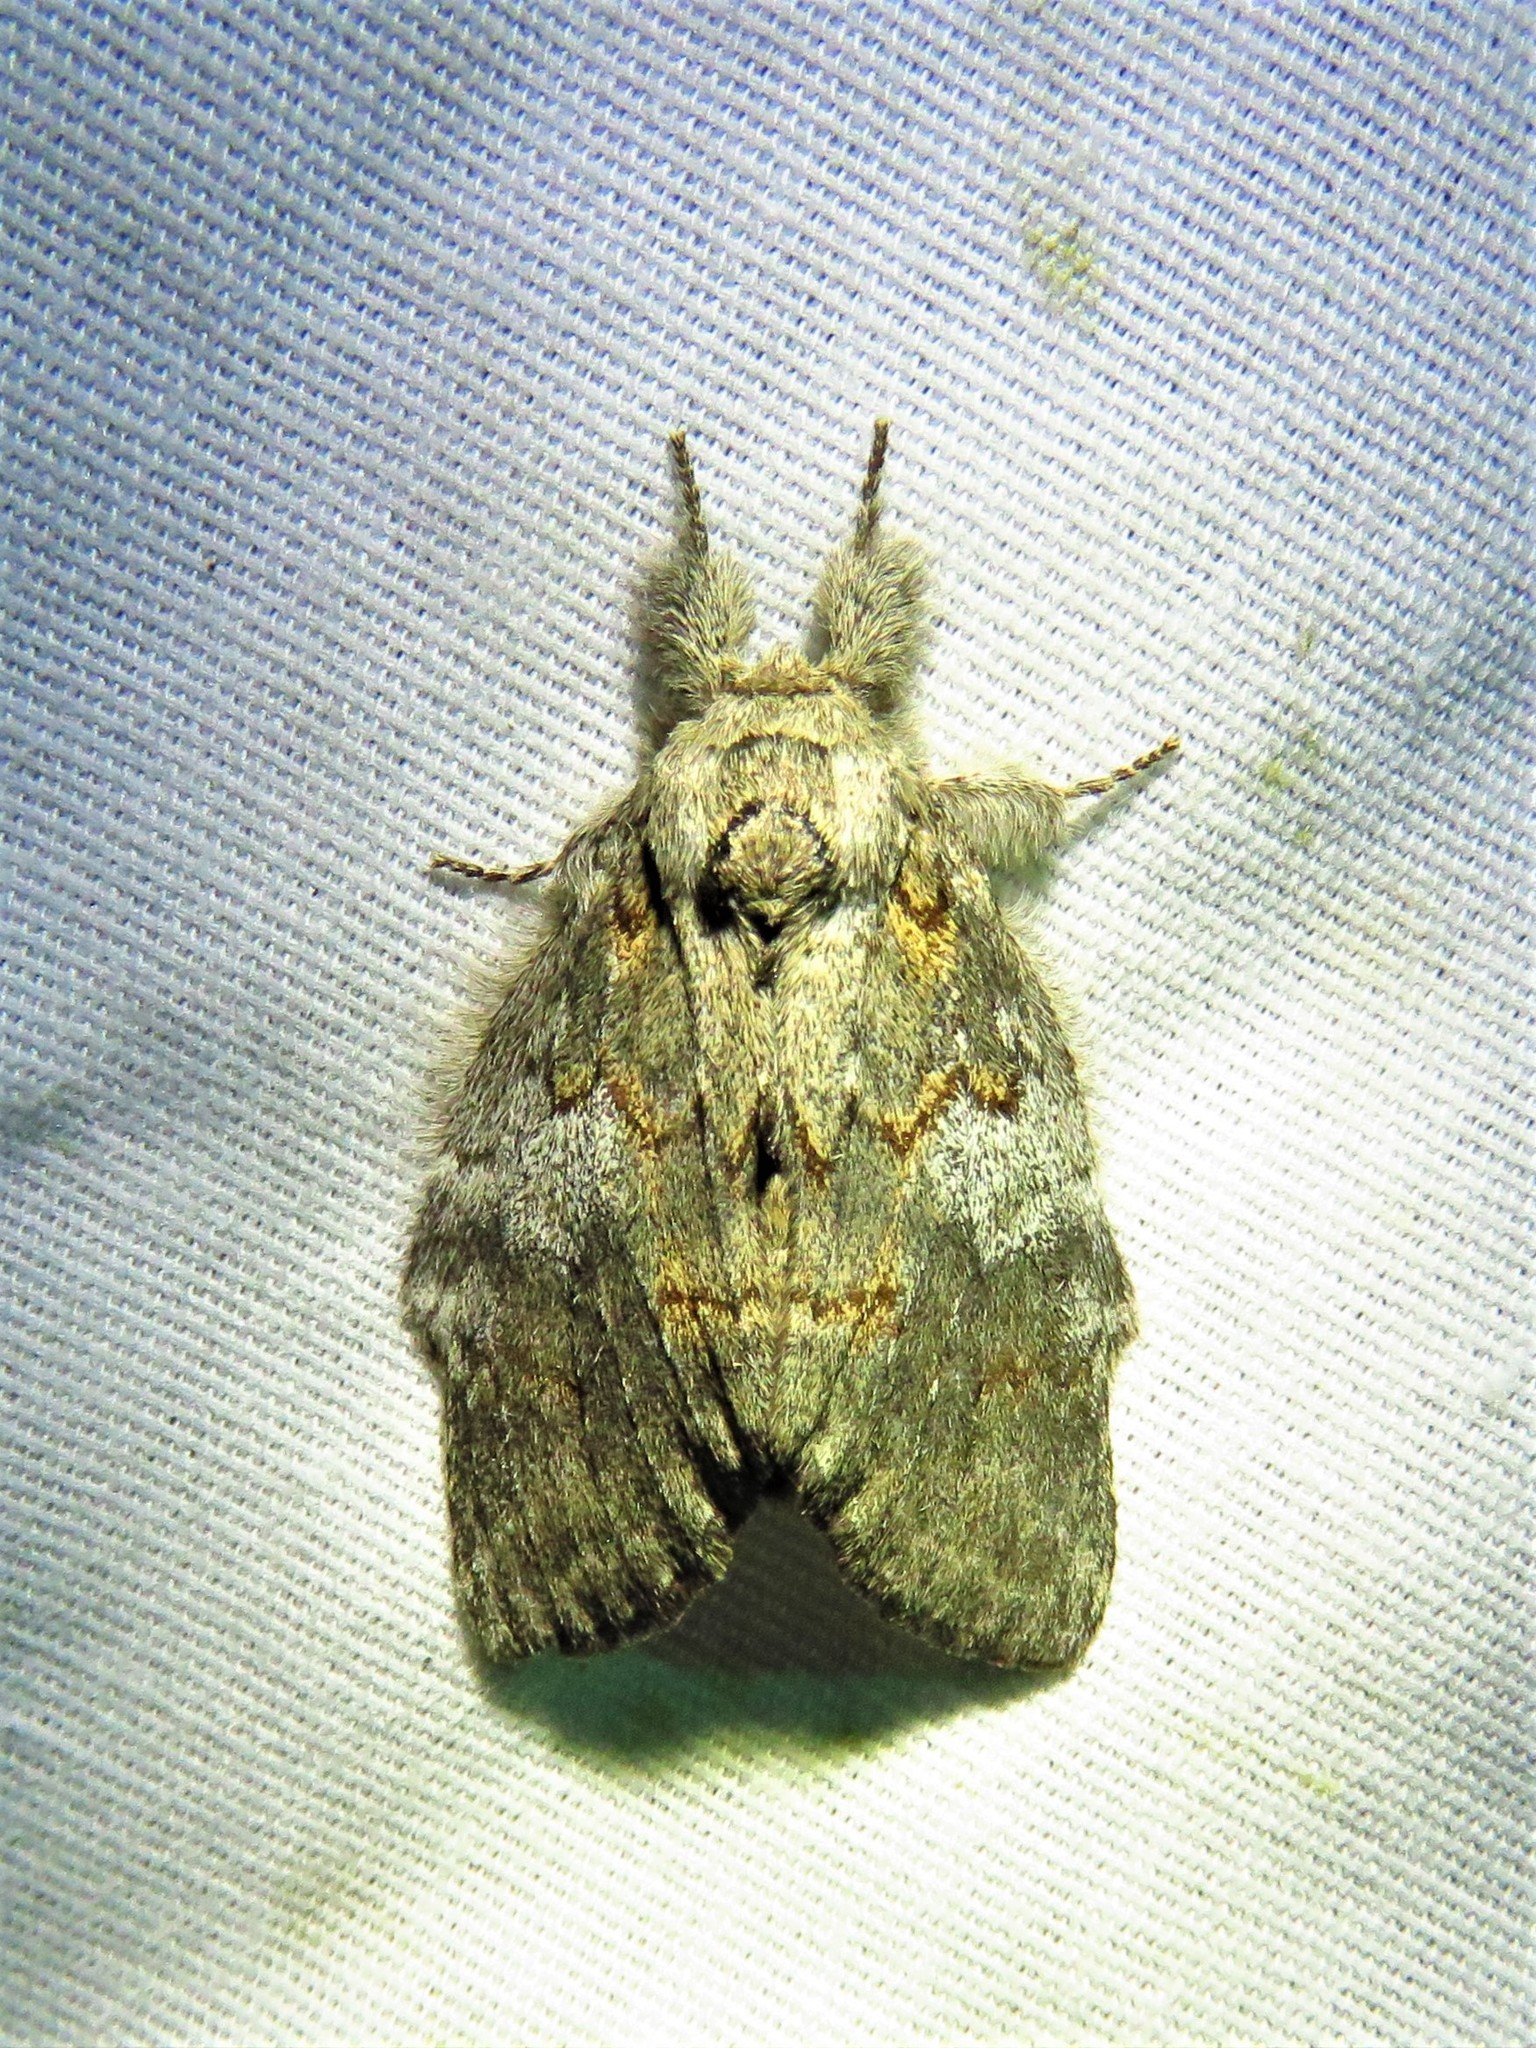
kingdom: Animalia
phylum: Arthropoda
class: Insecta
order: Lepidoptera
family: Notodontidae
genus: Peridea
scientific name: Peridea angulosa
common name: Angulose prominent
